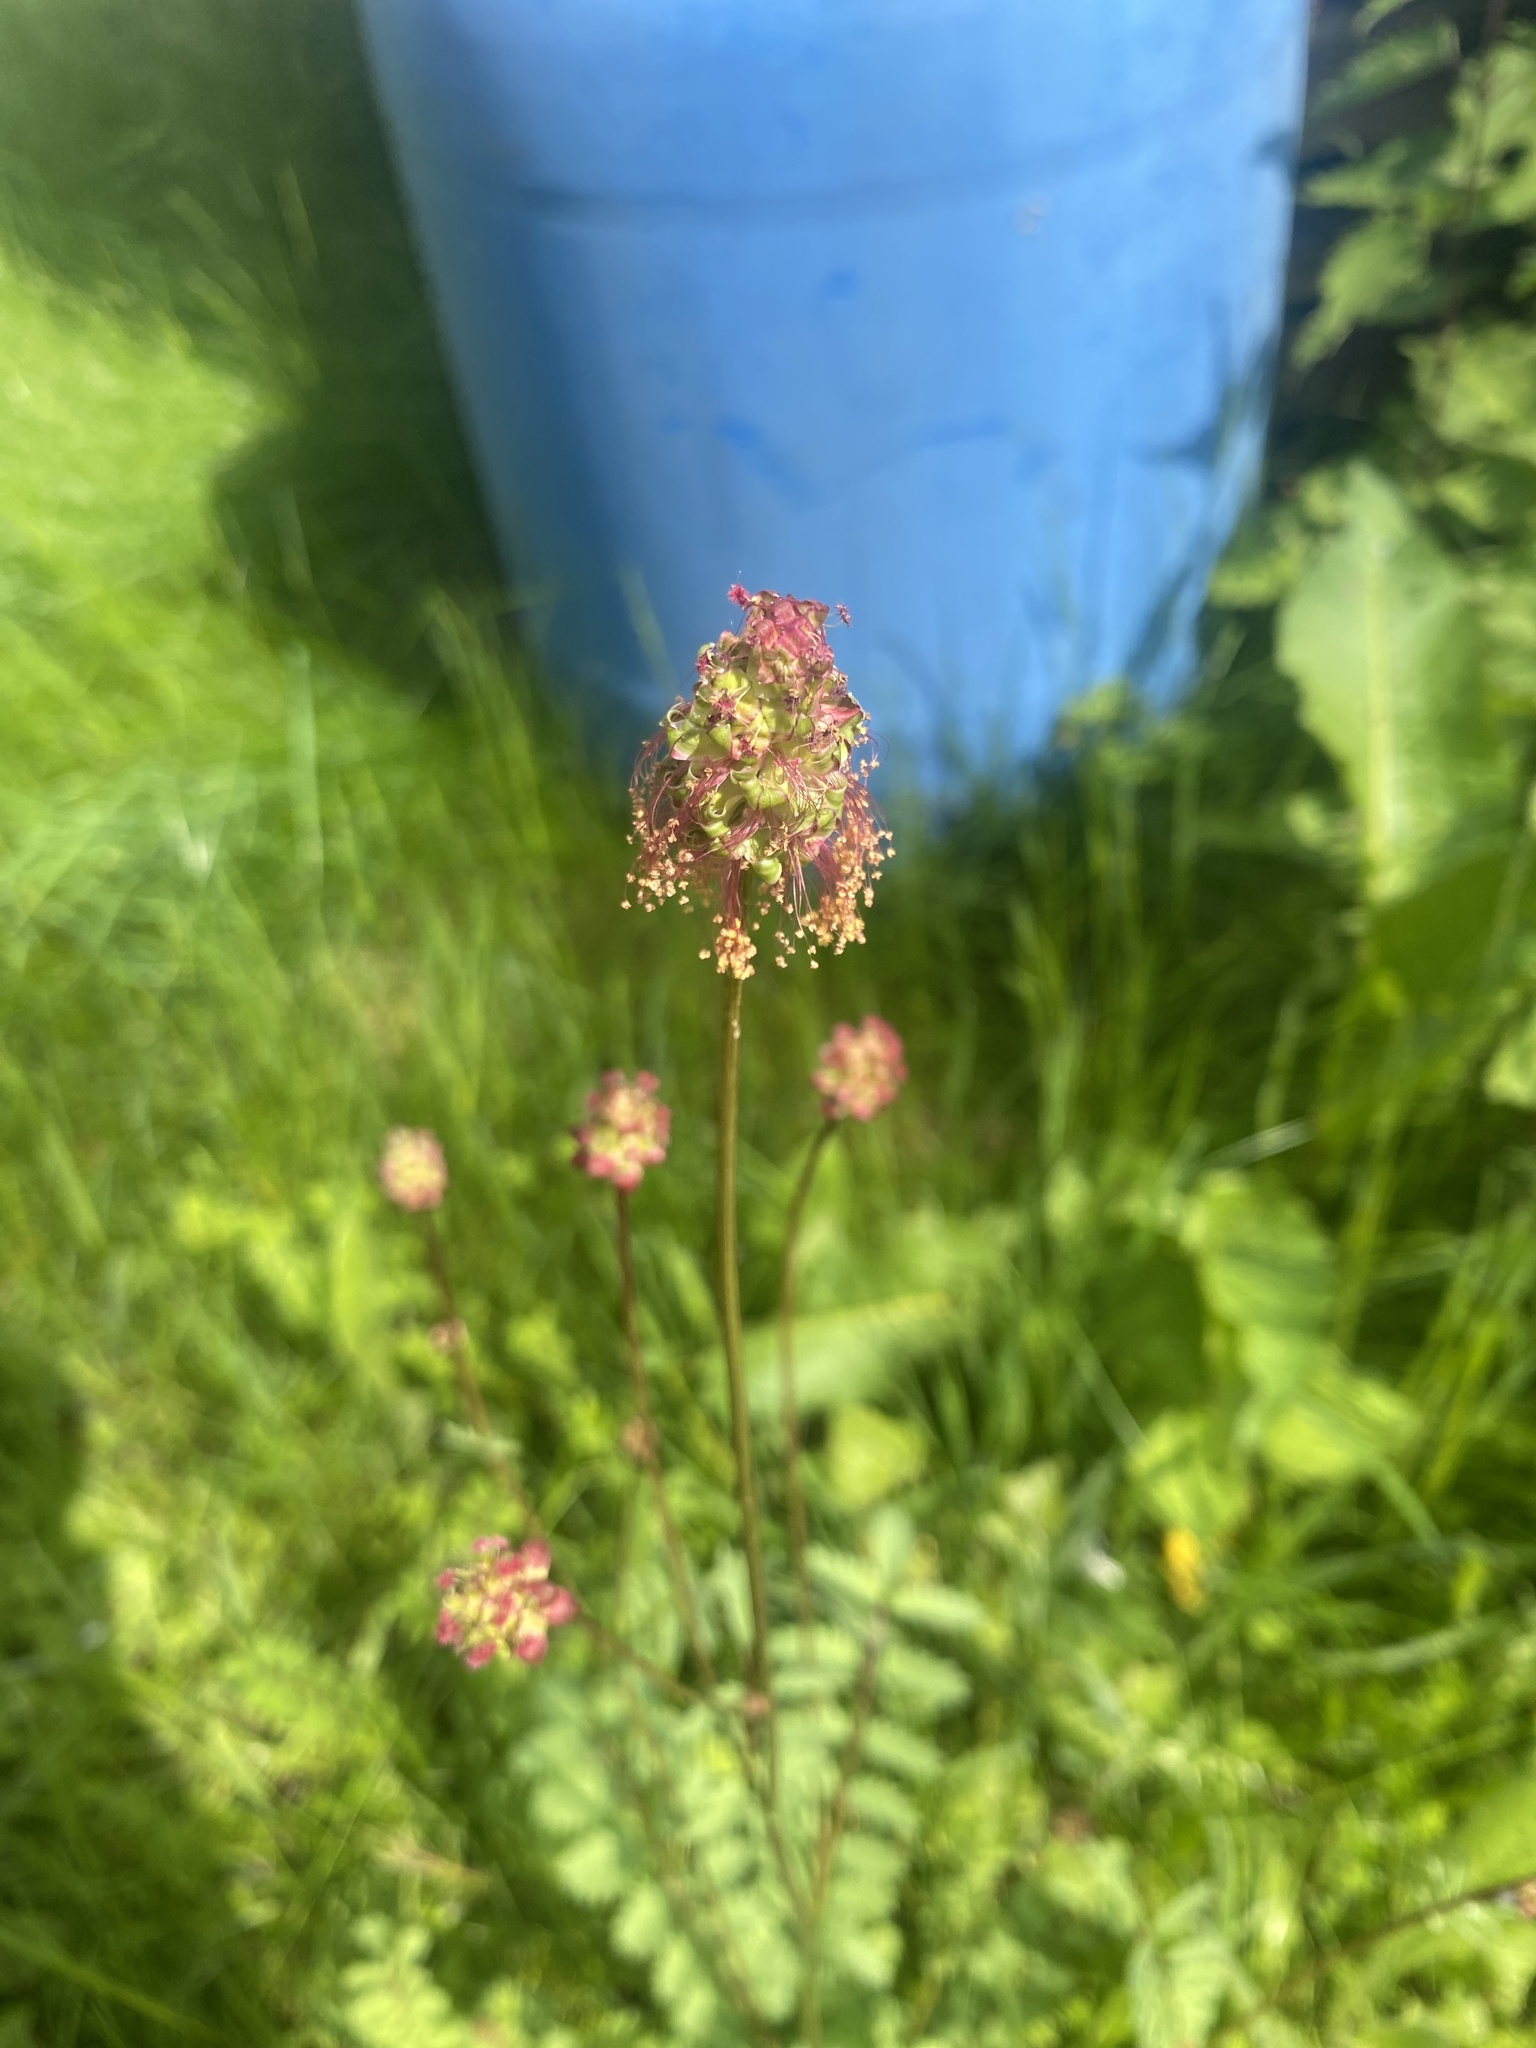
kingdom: Plantae
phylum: Tracheophyta
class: Magnoliopsida
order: Rosales
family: Rosaceae
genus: Poterium
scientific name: Poterium sanguisorba
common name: Salad burnet
